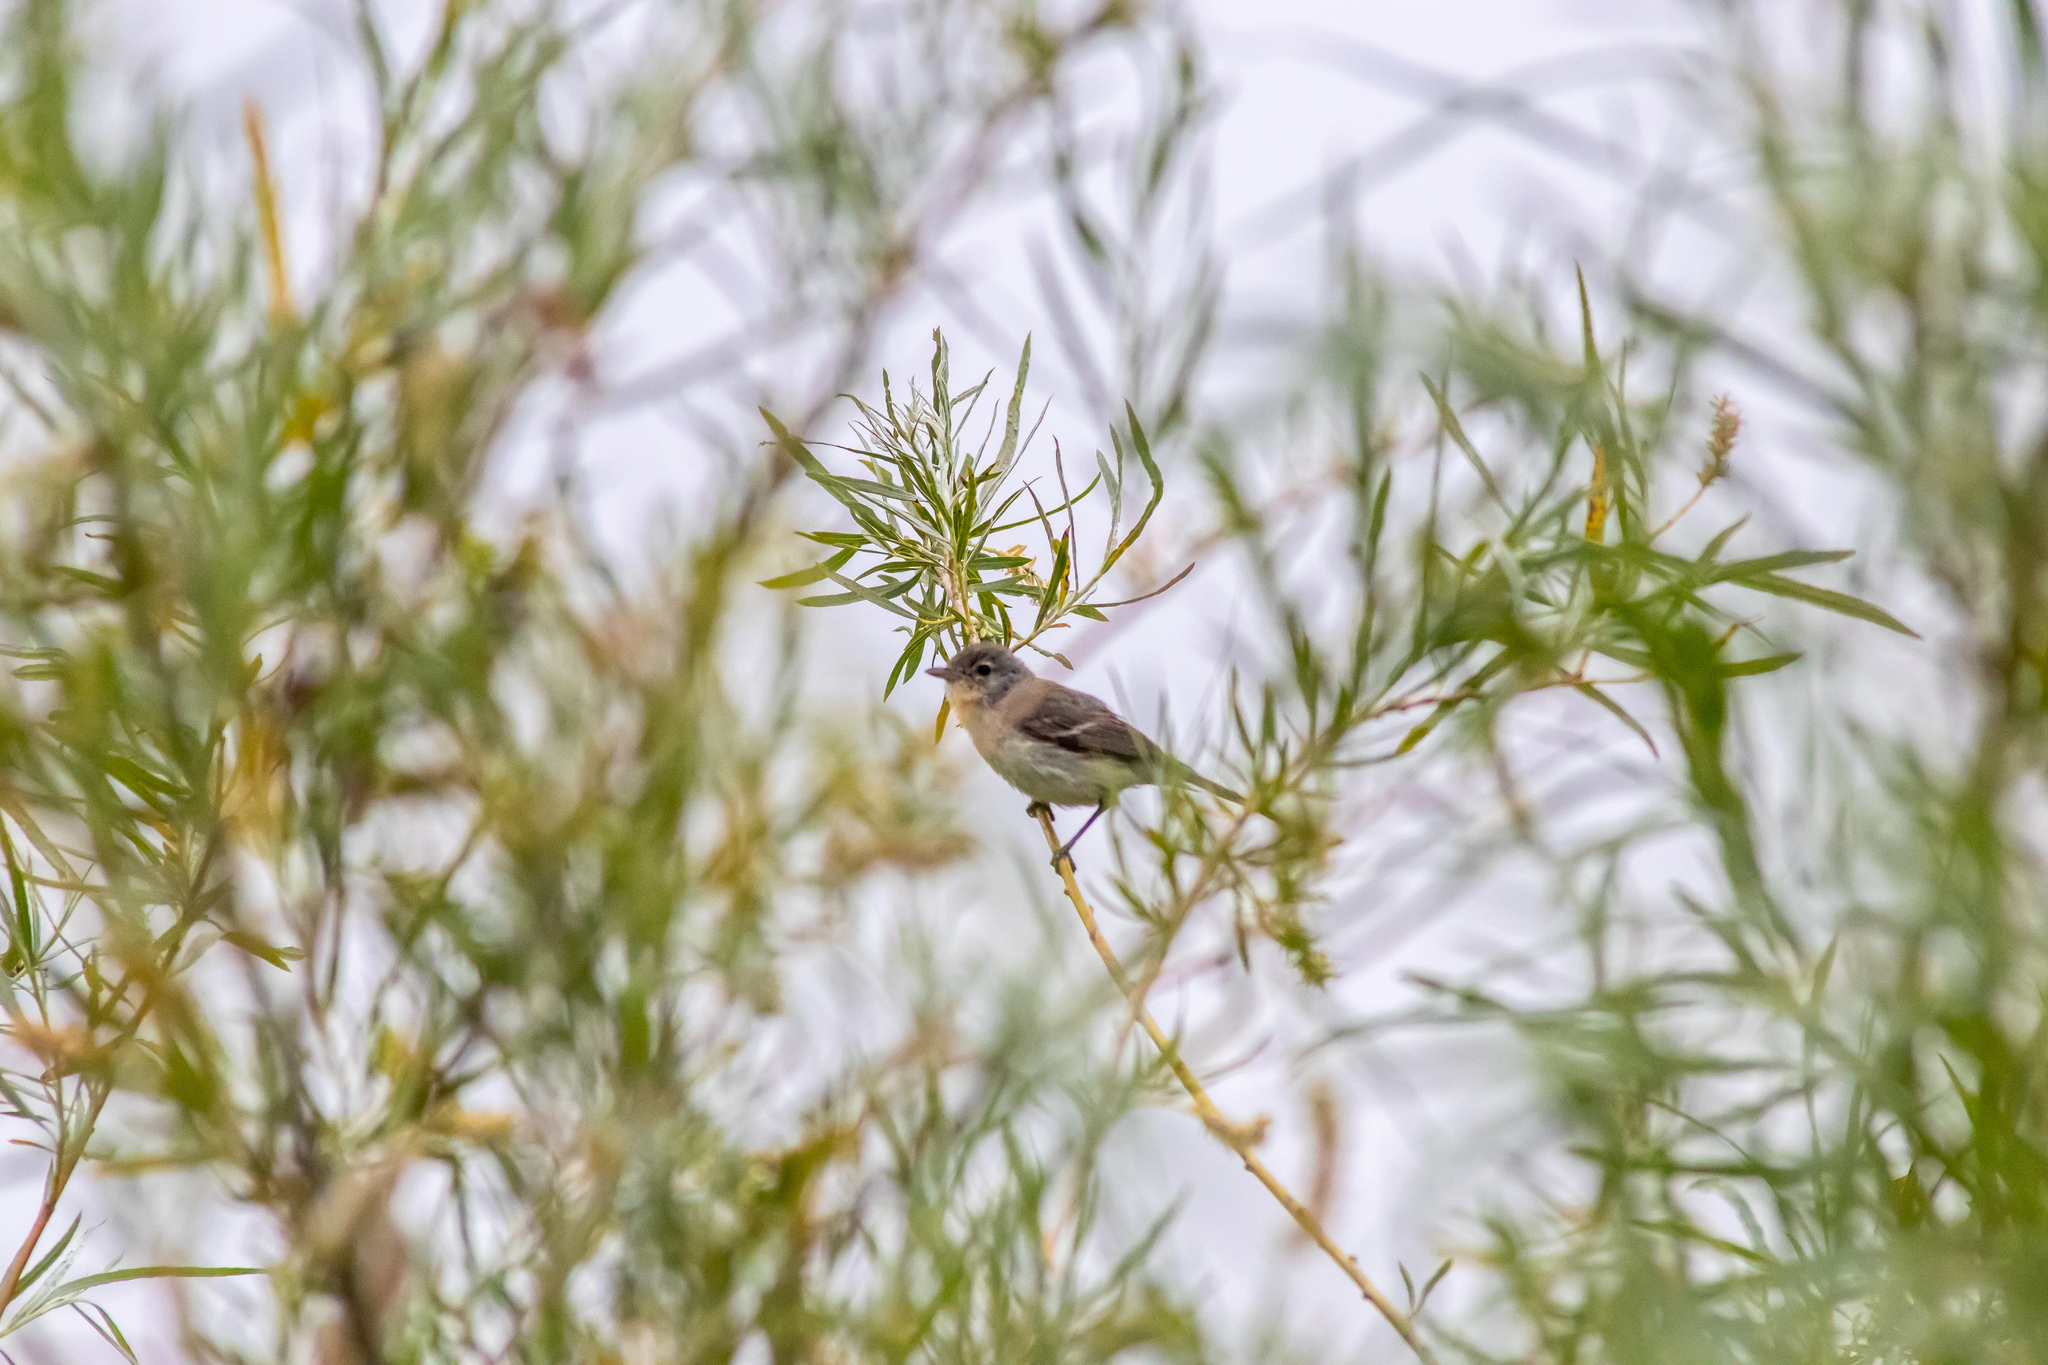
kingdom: Animalia
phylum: Chordata
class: Aves
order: Passeriformes
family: Vireonidae
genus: Vireo
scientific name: Vireo bellii
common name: Bell's vireo
